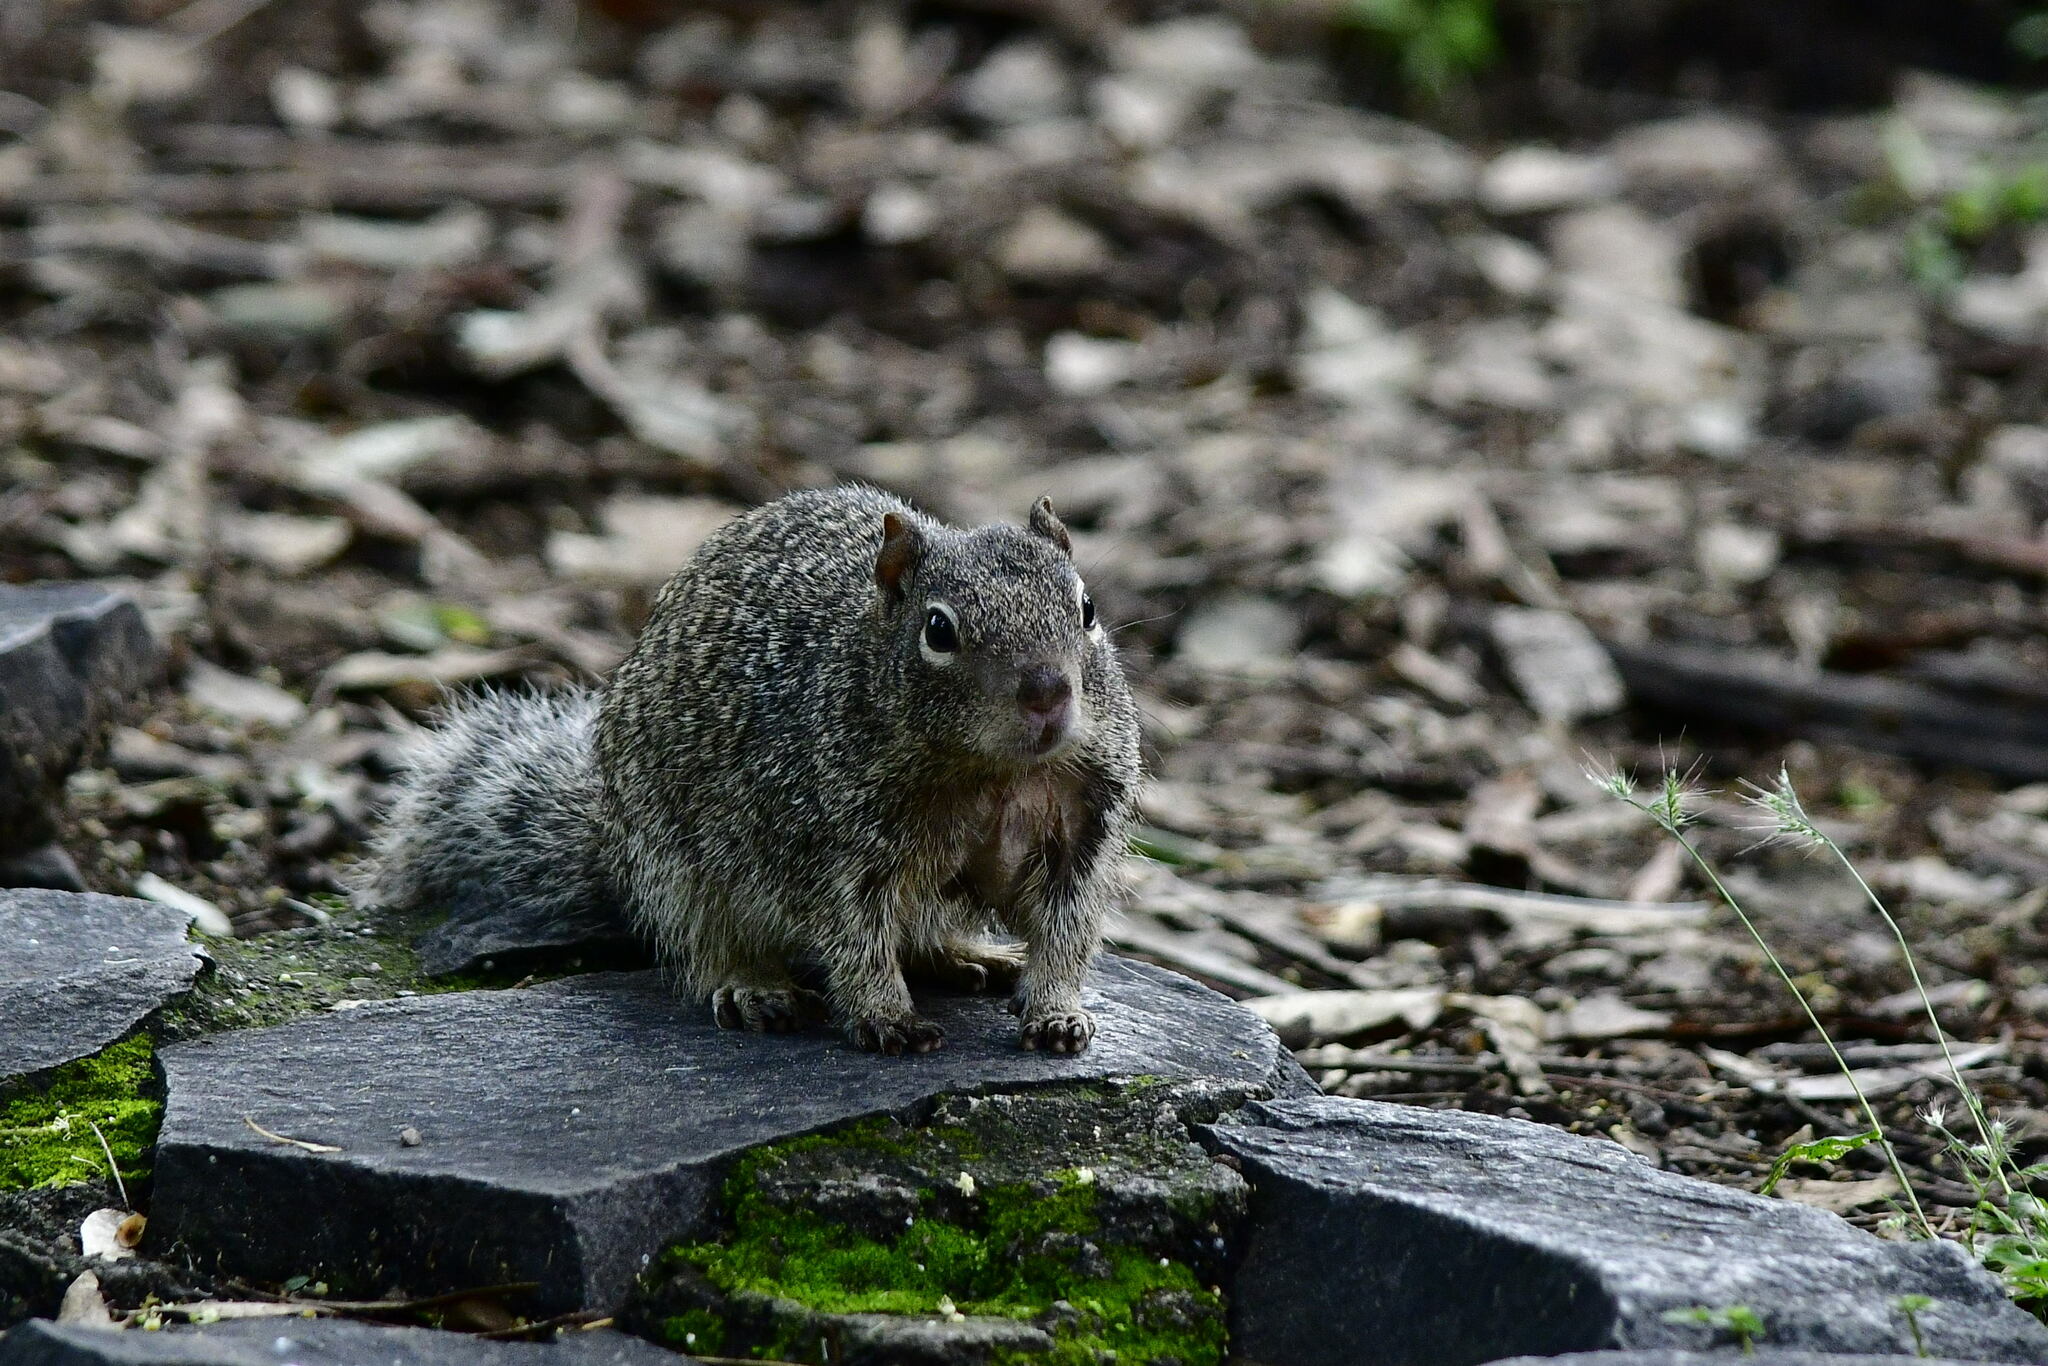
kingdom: Animalia
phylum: Chordata
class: Mammalia
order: Rodentia
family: Sciuridae
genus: Otospermophilus
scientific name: Otospermophilus variegatus
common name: Rock squirrel
